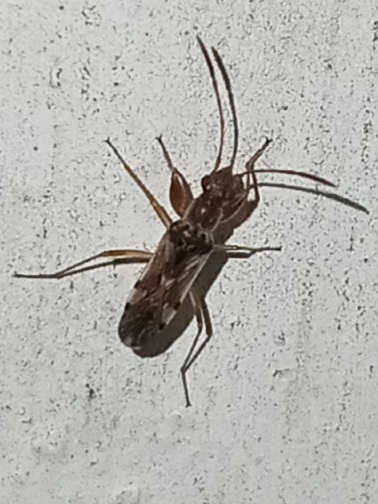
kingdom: Animalia
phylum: Arthropoda
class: Insecta
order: Hemiptera
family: Rhyparochromidae
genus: Neopamera
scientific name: Neopamera bilobata
